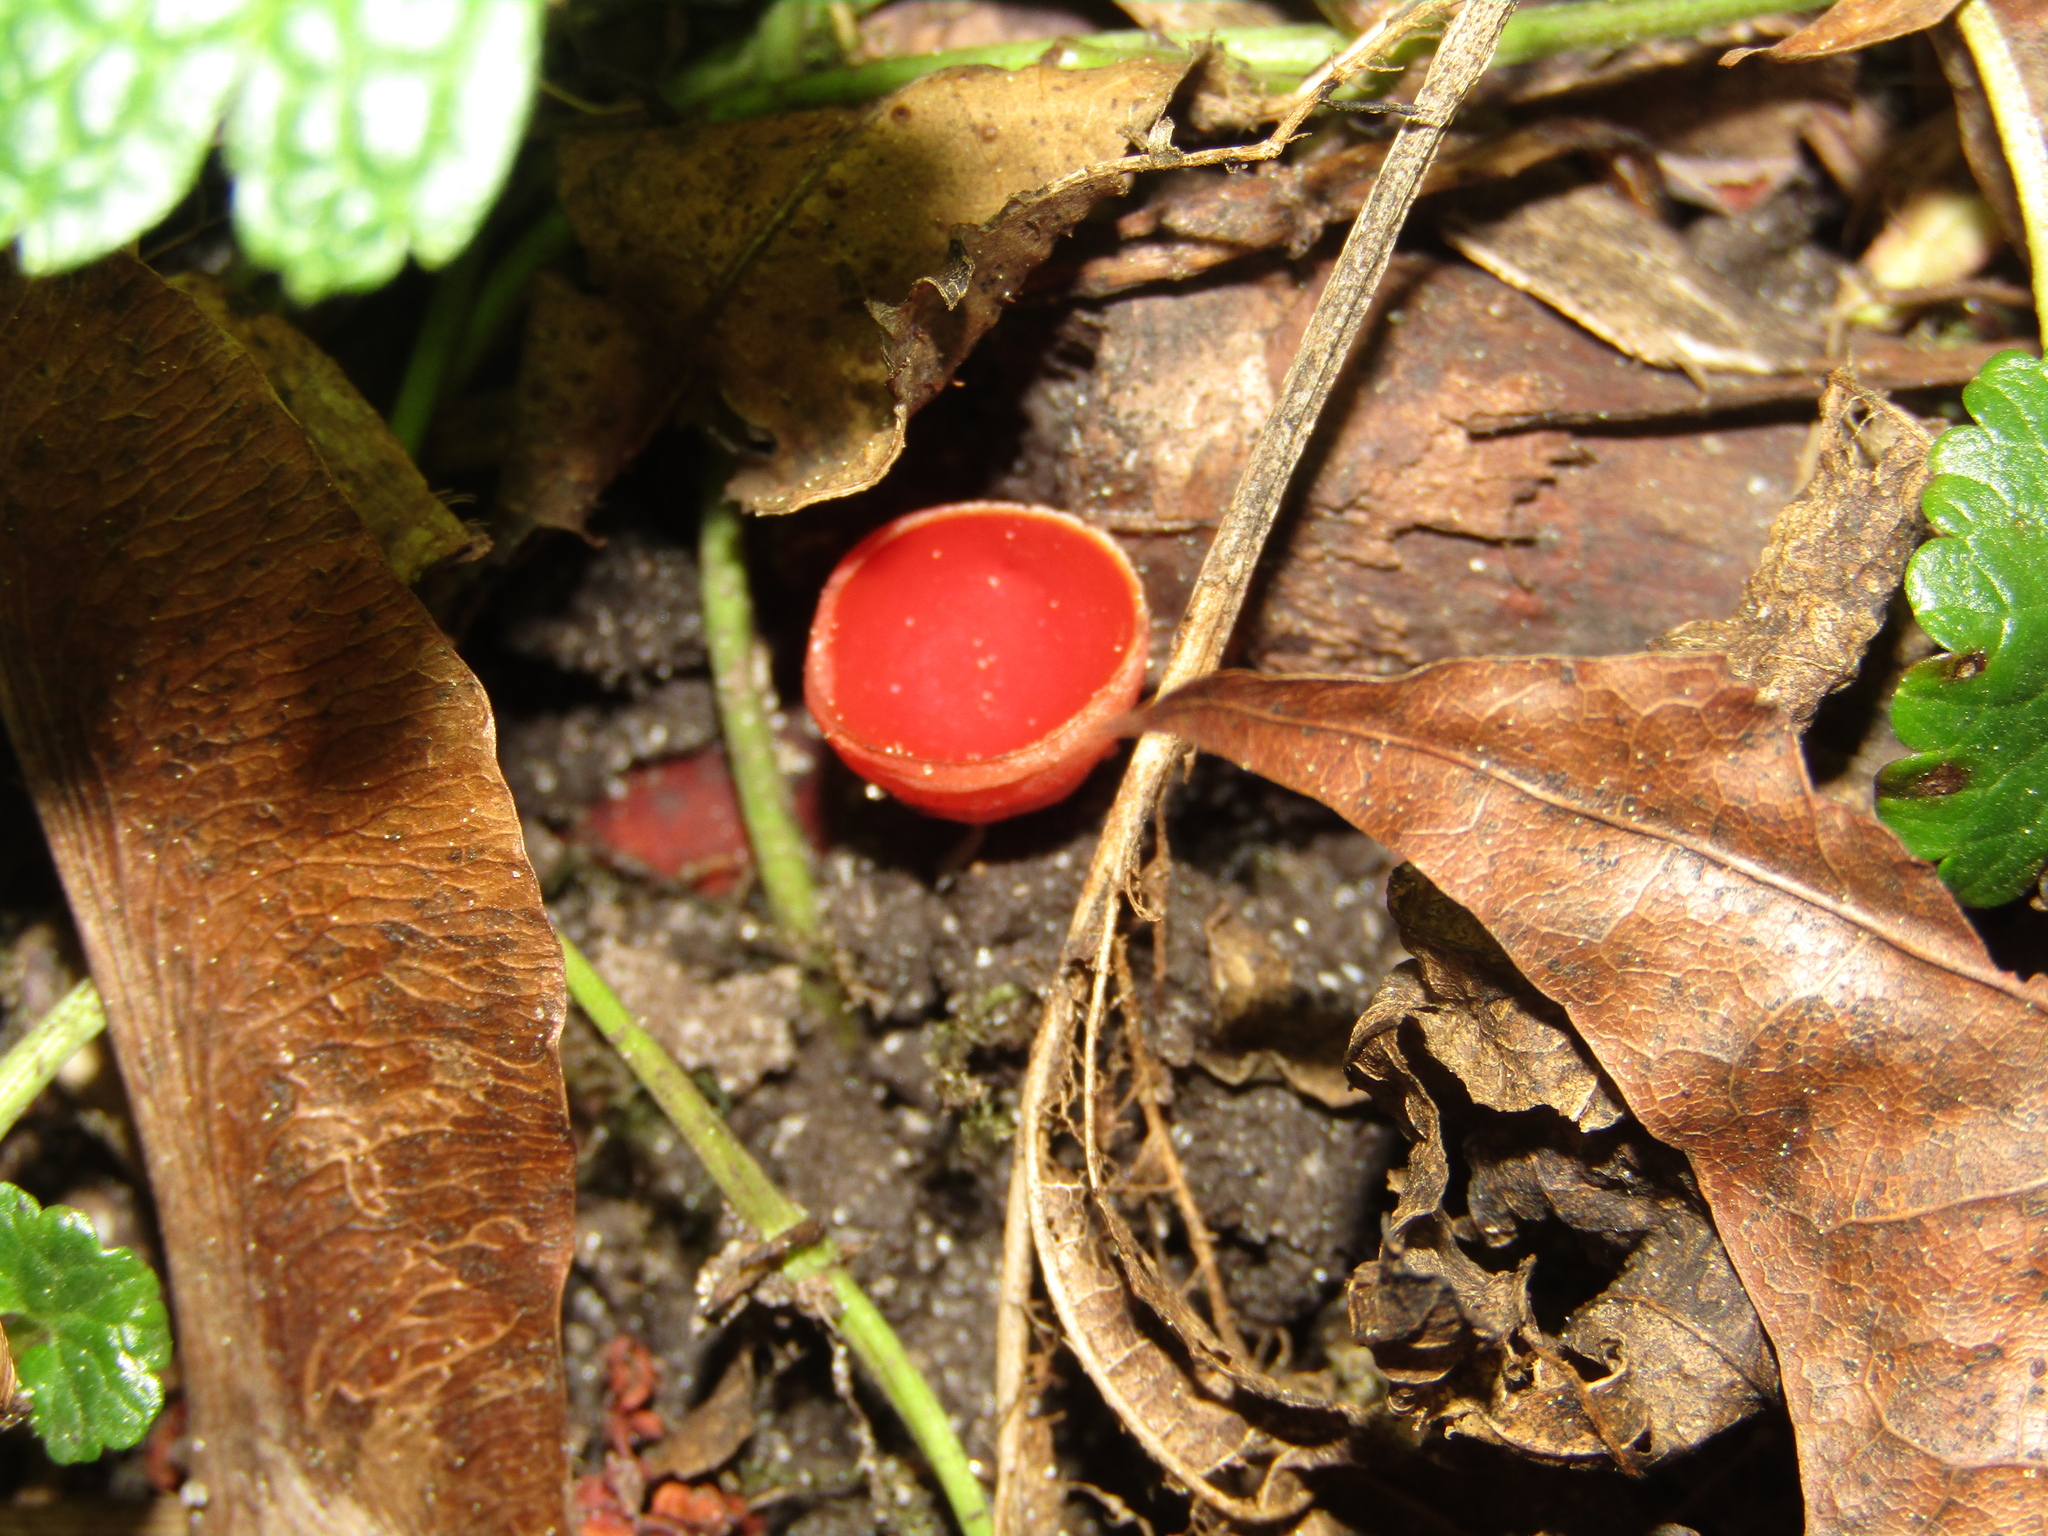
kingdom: Fungi
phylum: Ascomycota
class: Pezizomycetes
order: Pezizales
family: Sarcoscyphaceae
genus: Sarcoscypha
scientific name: Sarcoscypha austriaca
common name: Scarlet elfcup
